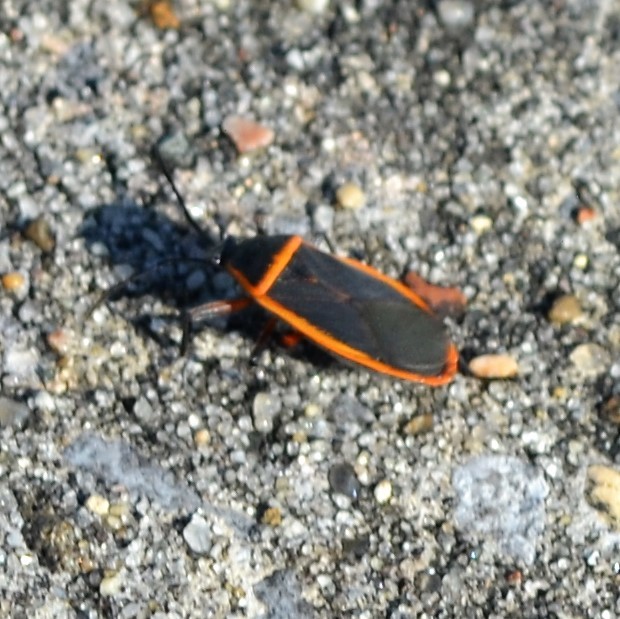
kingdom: Animalia
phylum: Arthropoda
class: Insecta
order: Hemiptera
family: Largidae
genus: Largus
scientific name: Largus succinctus
